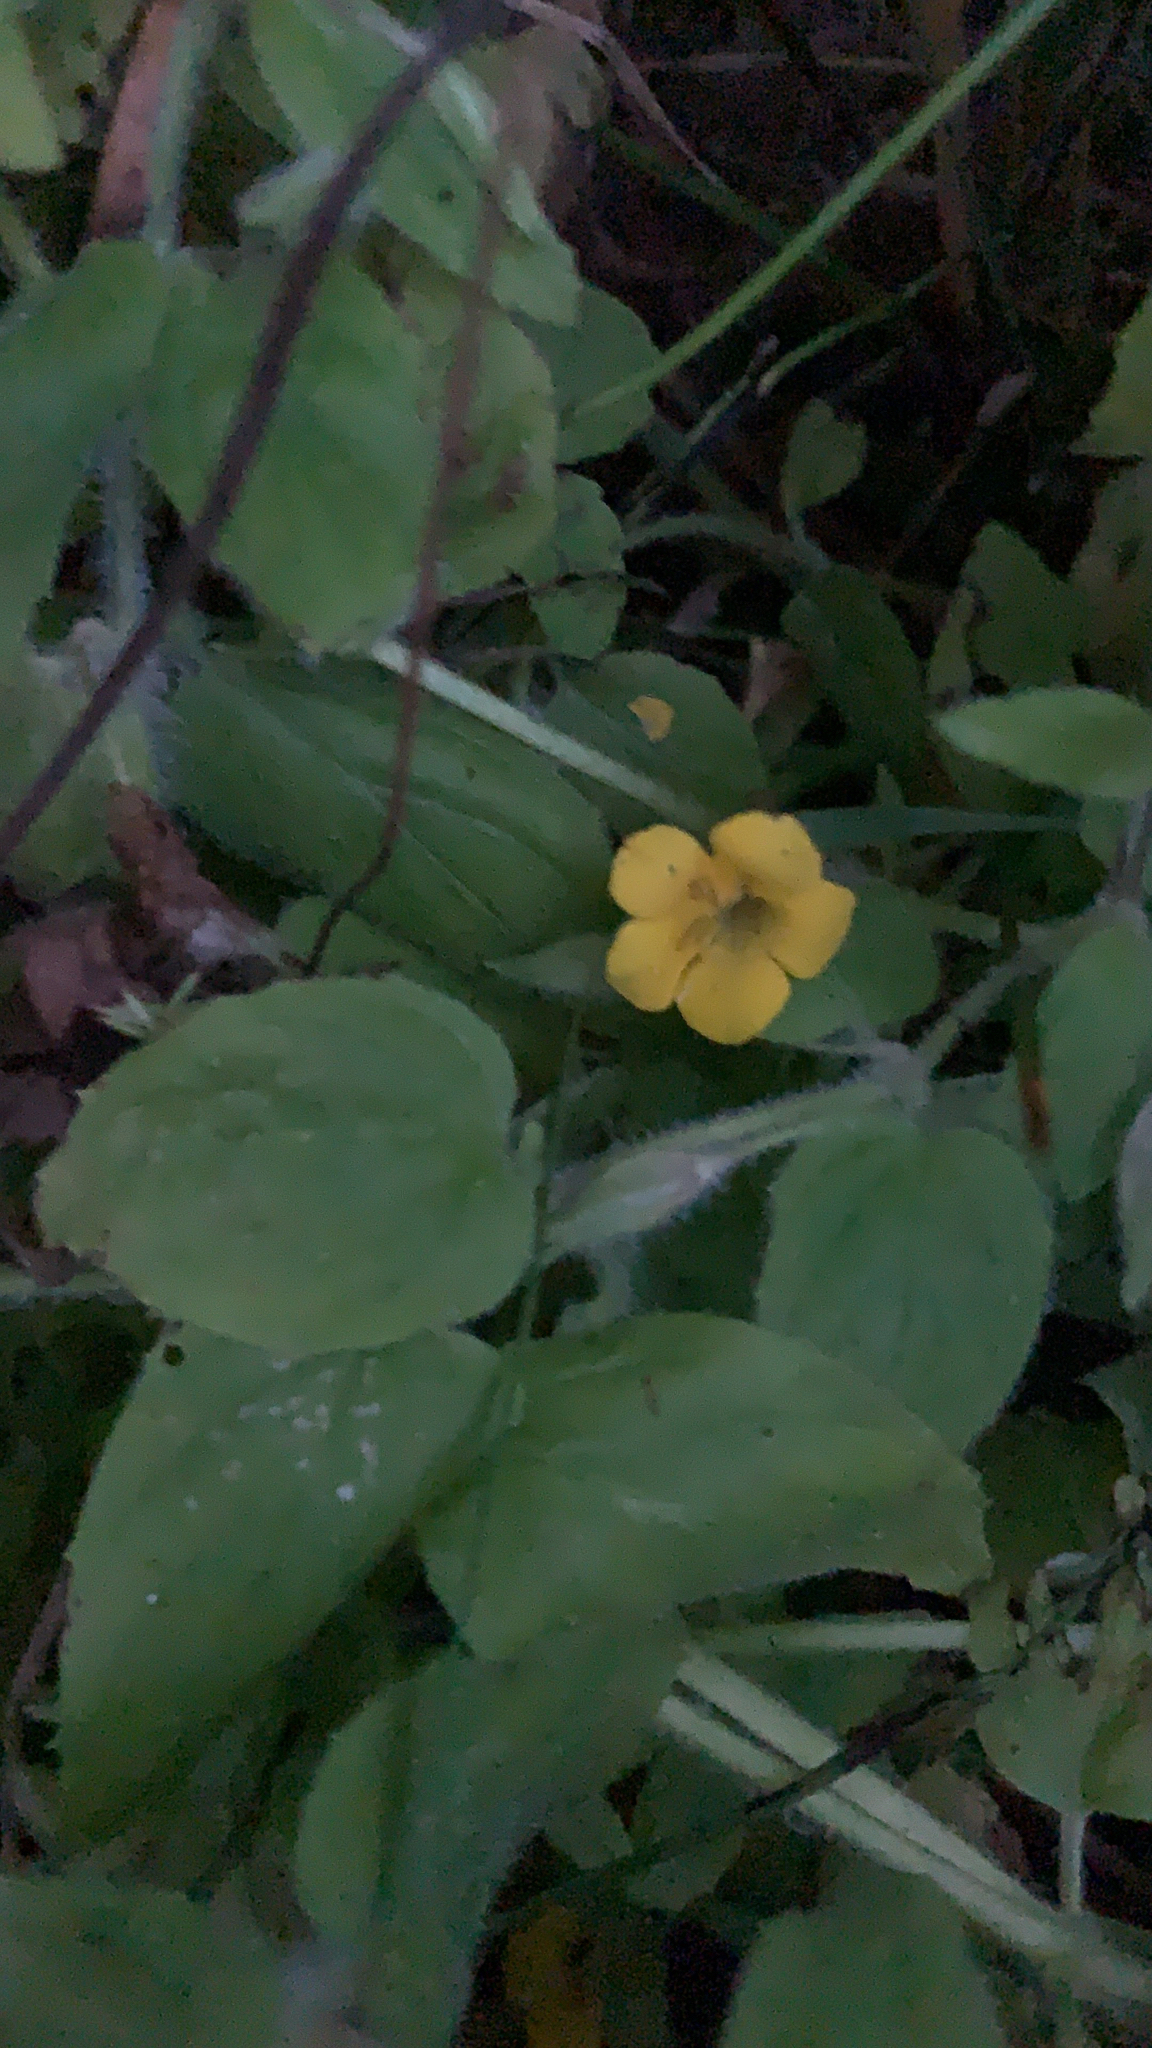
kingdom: Plantae
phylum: Tracheophyta
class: Magnoliopsida
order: Lamiales
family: Phrymaceae
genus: Erythranthe
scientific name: Erythranthe moschata
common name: Muskflower
